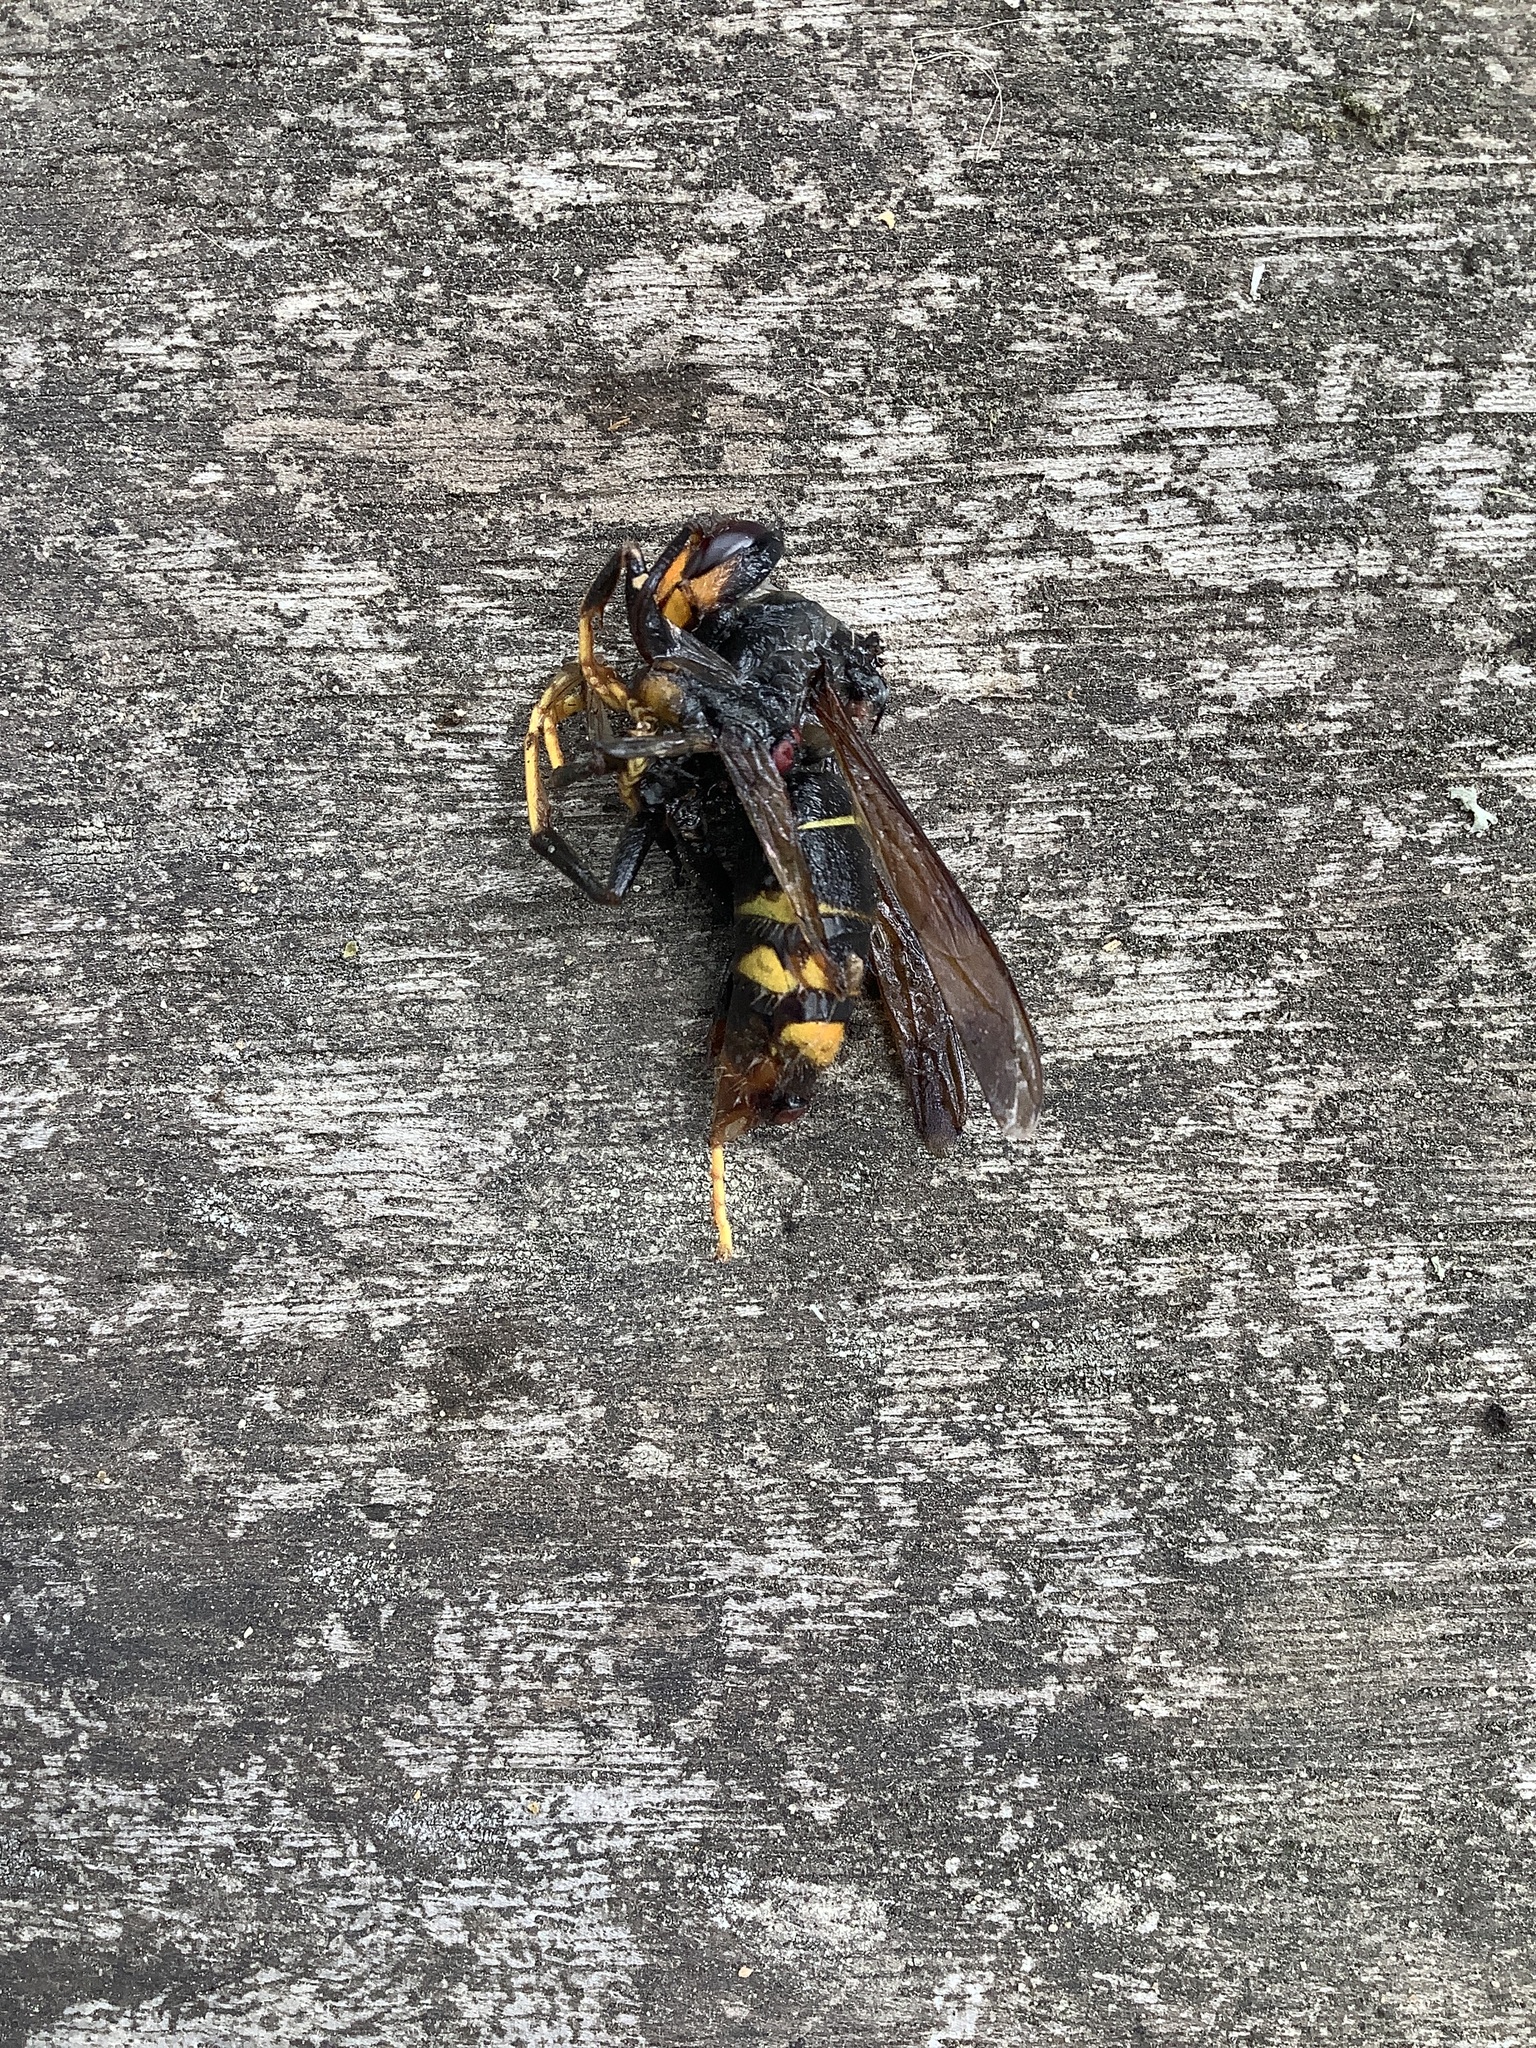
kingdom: Animalia
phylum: Arthropoda
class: Insecta
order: Hymenoptera
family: Vespidae
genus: Vespa
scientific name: Vespa velutina
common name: Asian hornet
